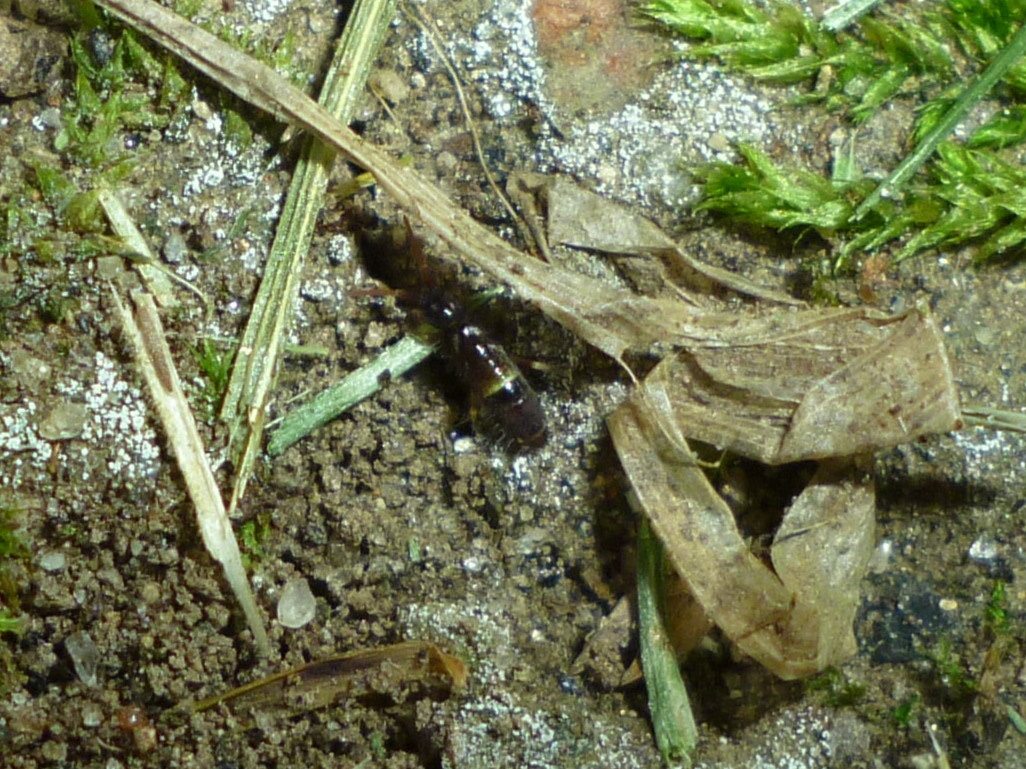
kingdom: Animalia
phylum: Arthropoda
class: Collembola
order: Entomobryomorpha
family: Orchesellidae
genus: Orchesella
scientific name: Orchesella cincta
